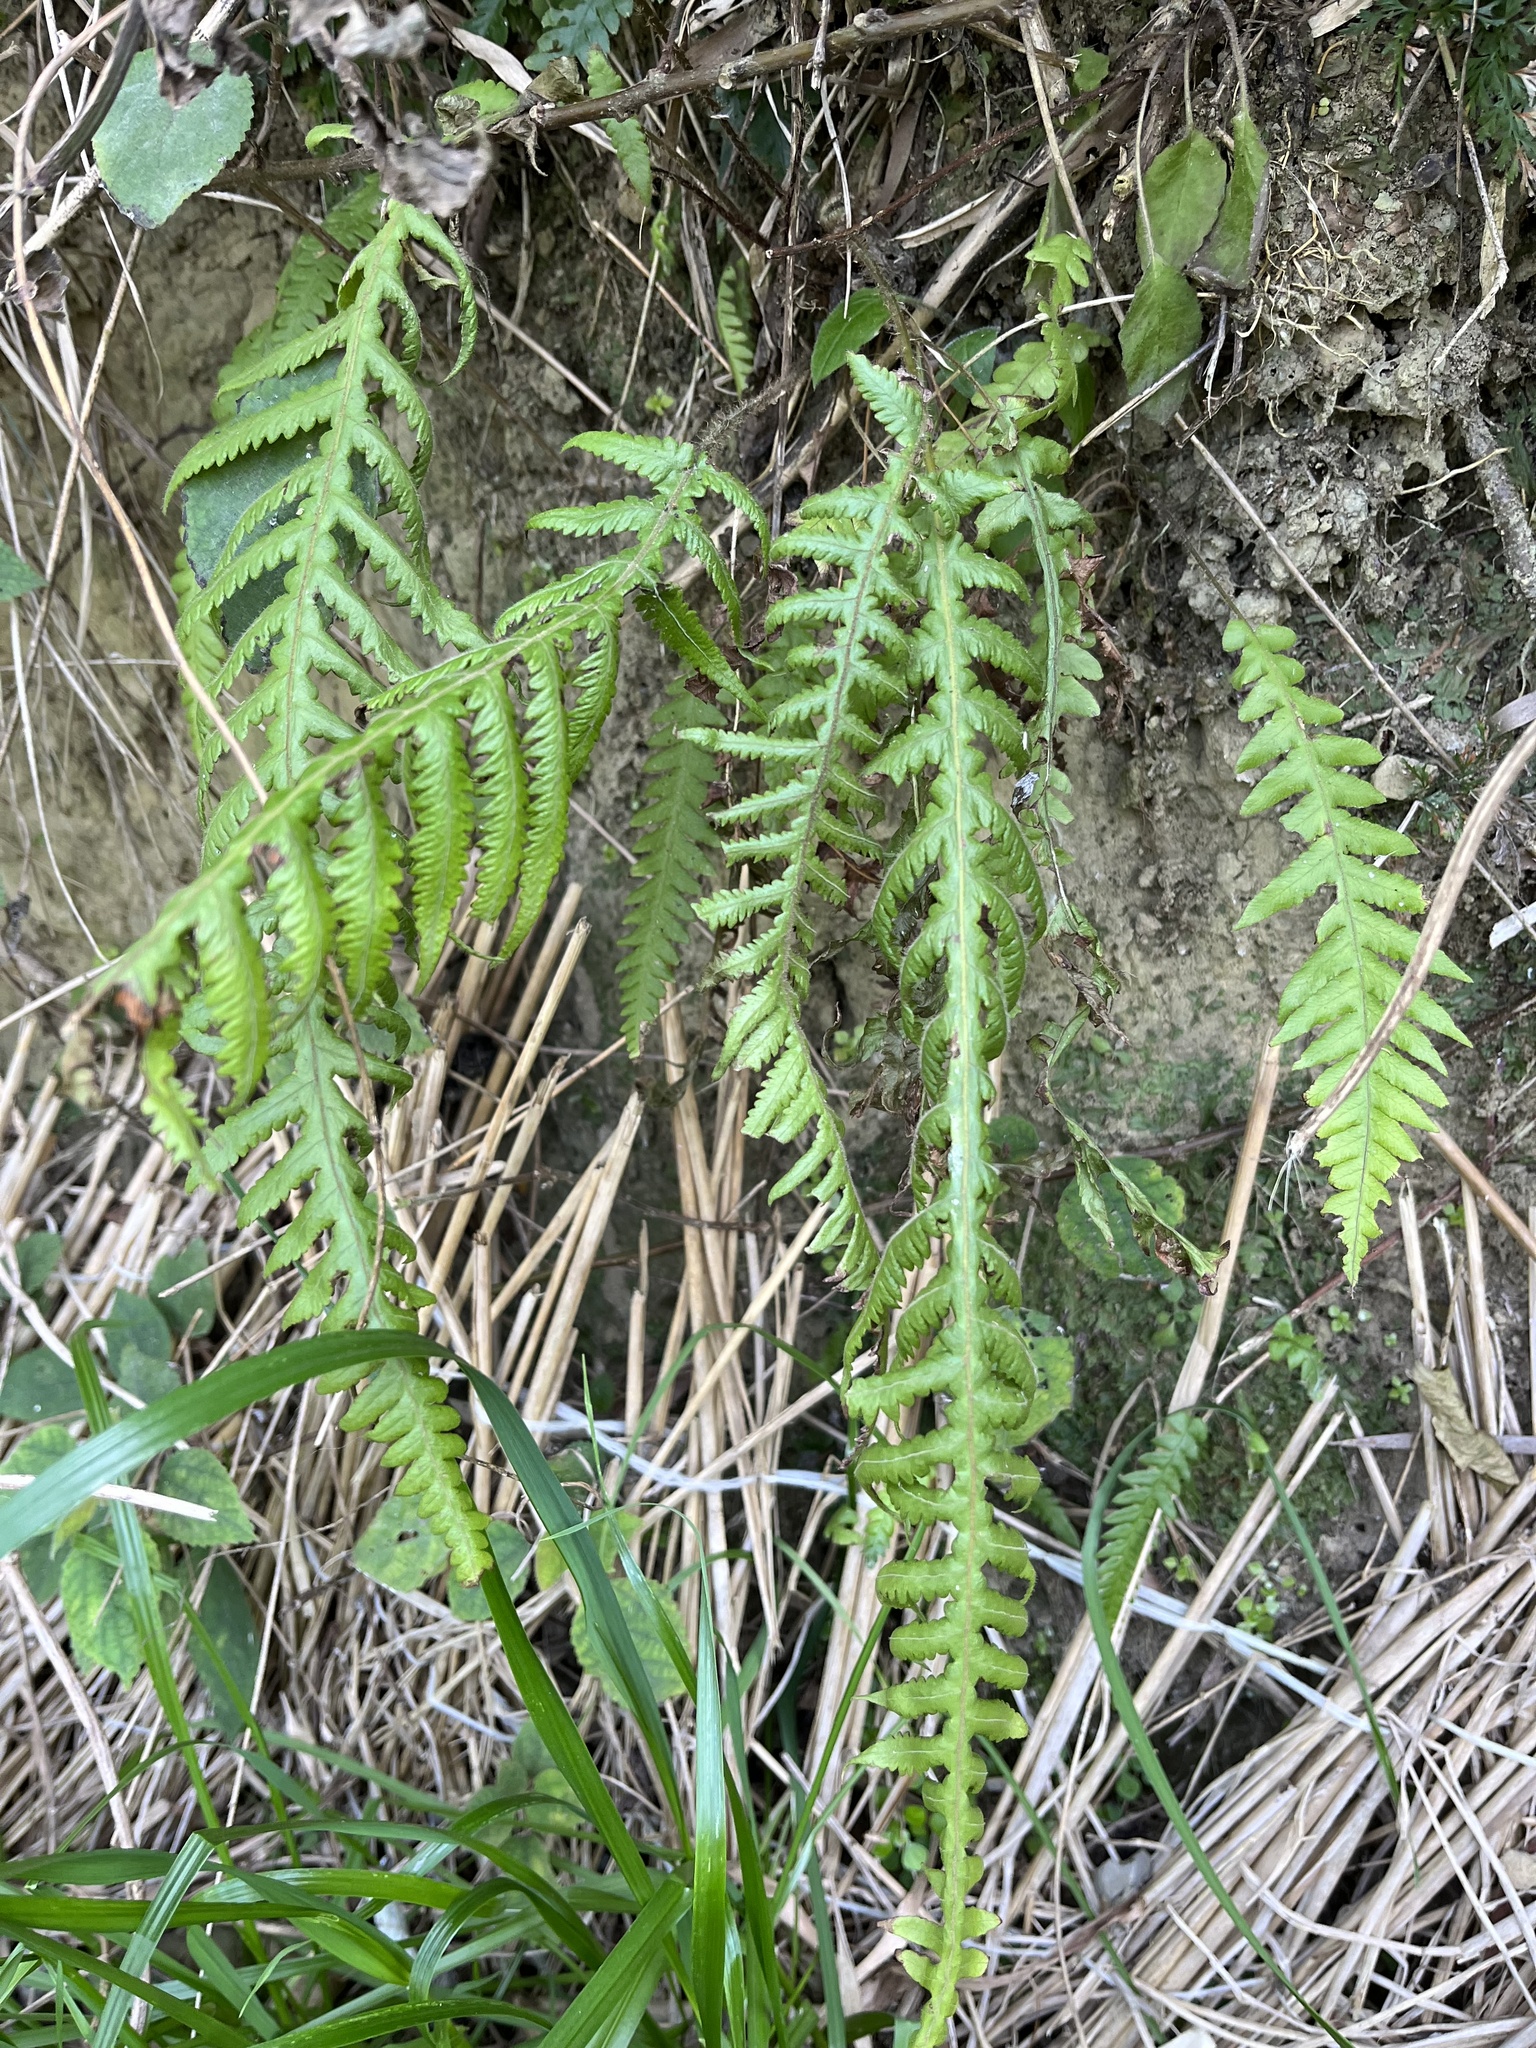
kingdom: Plantae
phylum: Tracheophyta
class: Polypodiopsida
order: Polypodiales
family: Thelypteridaceae
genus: Phegopteris
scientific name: Phegopteris decursive-pinnata
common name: Japanese beech fern
